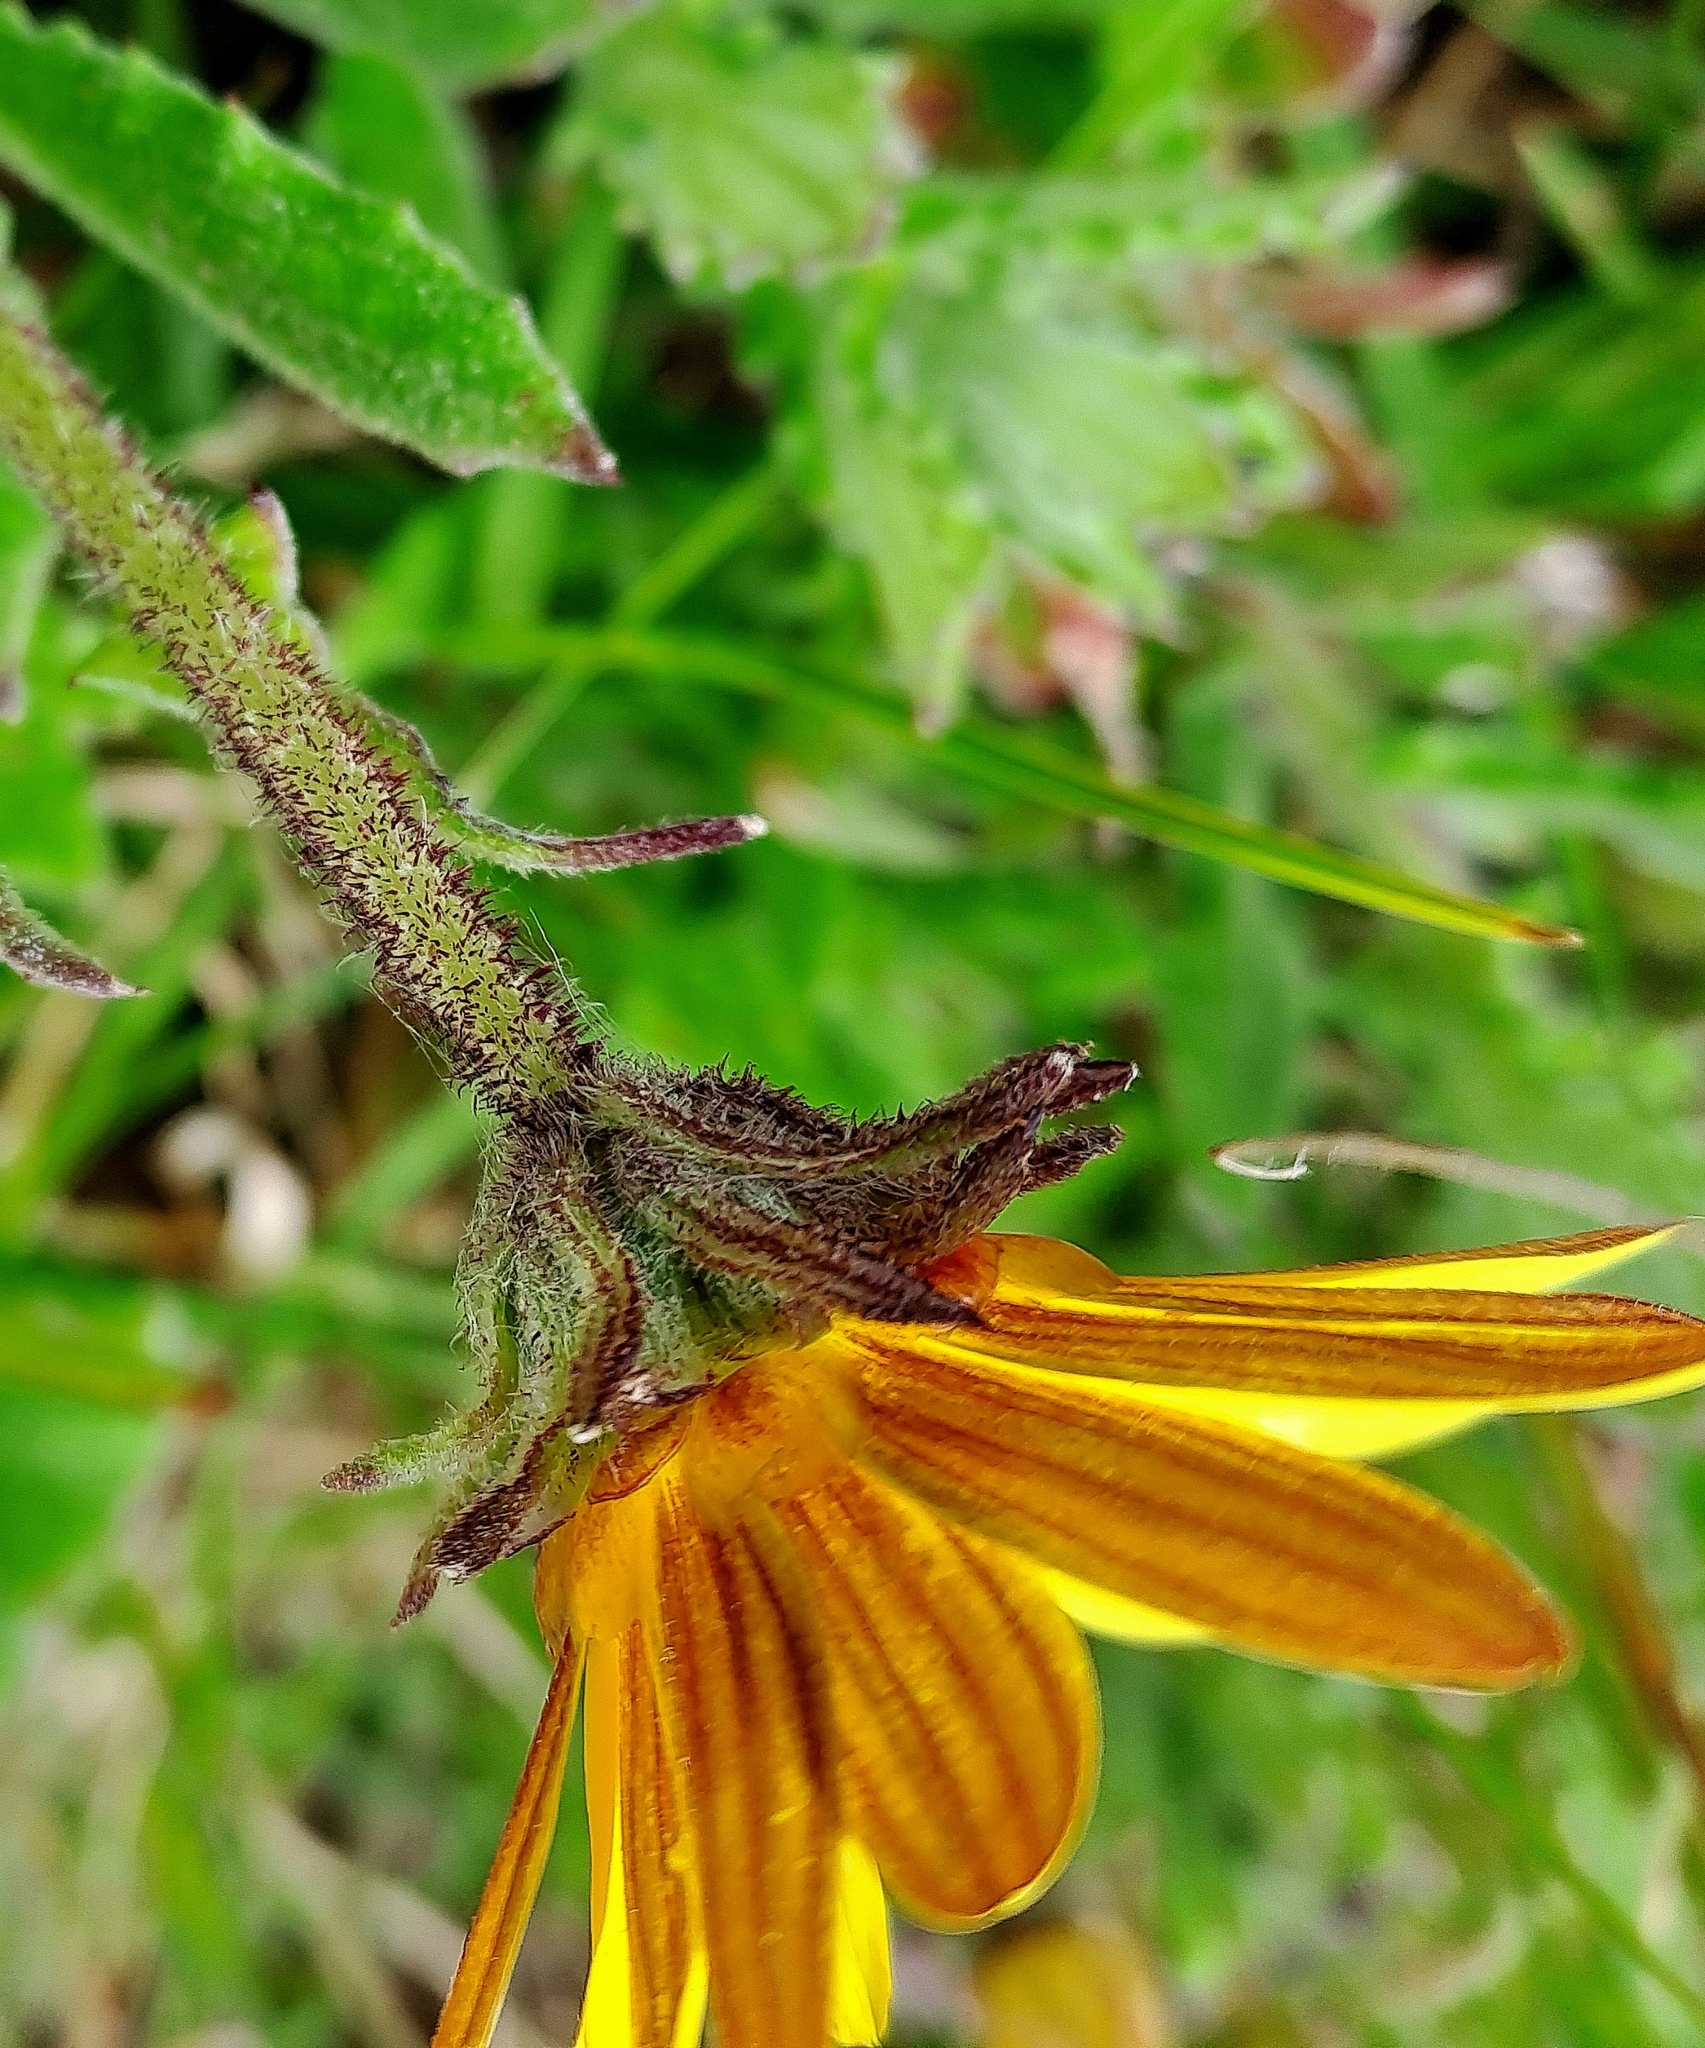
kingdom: Plantae
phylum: Tracheophyta
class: Magnoliopsida
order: Asterales
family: Asteraceae
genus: Arctotis
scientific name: Arctotis scabra
